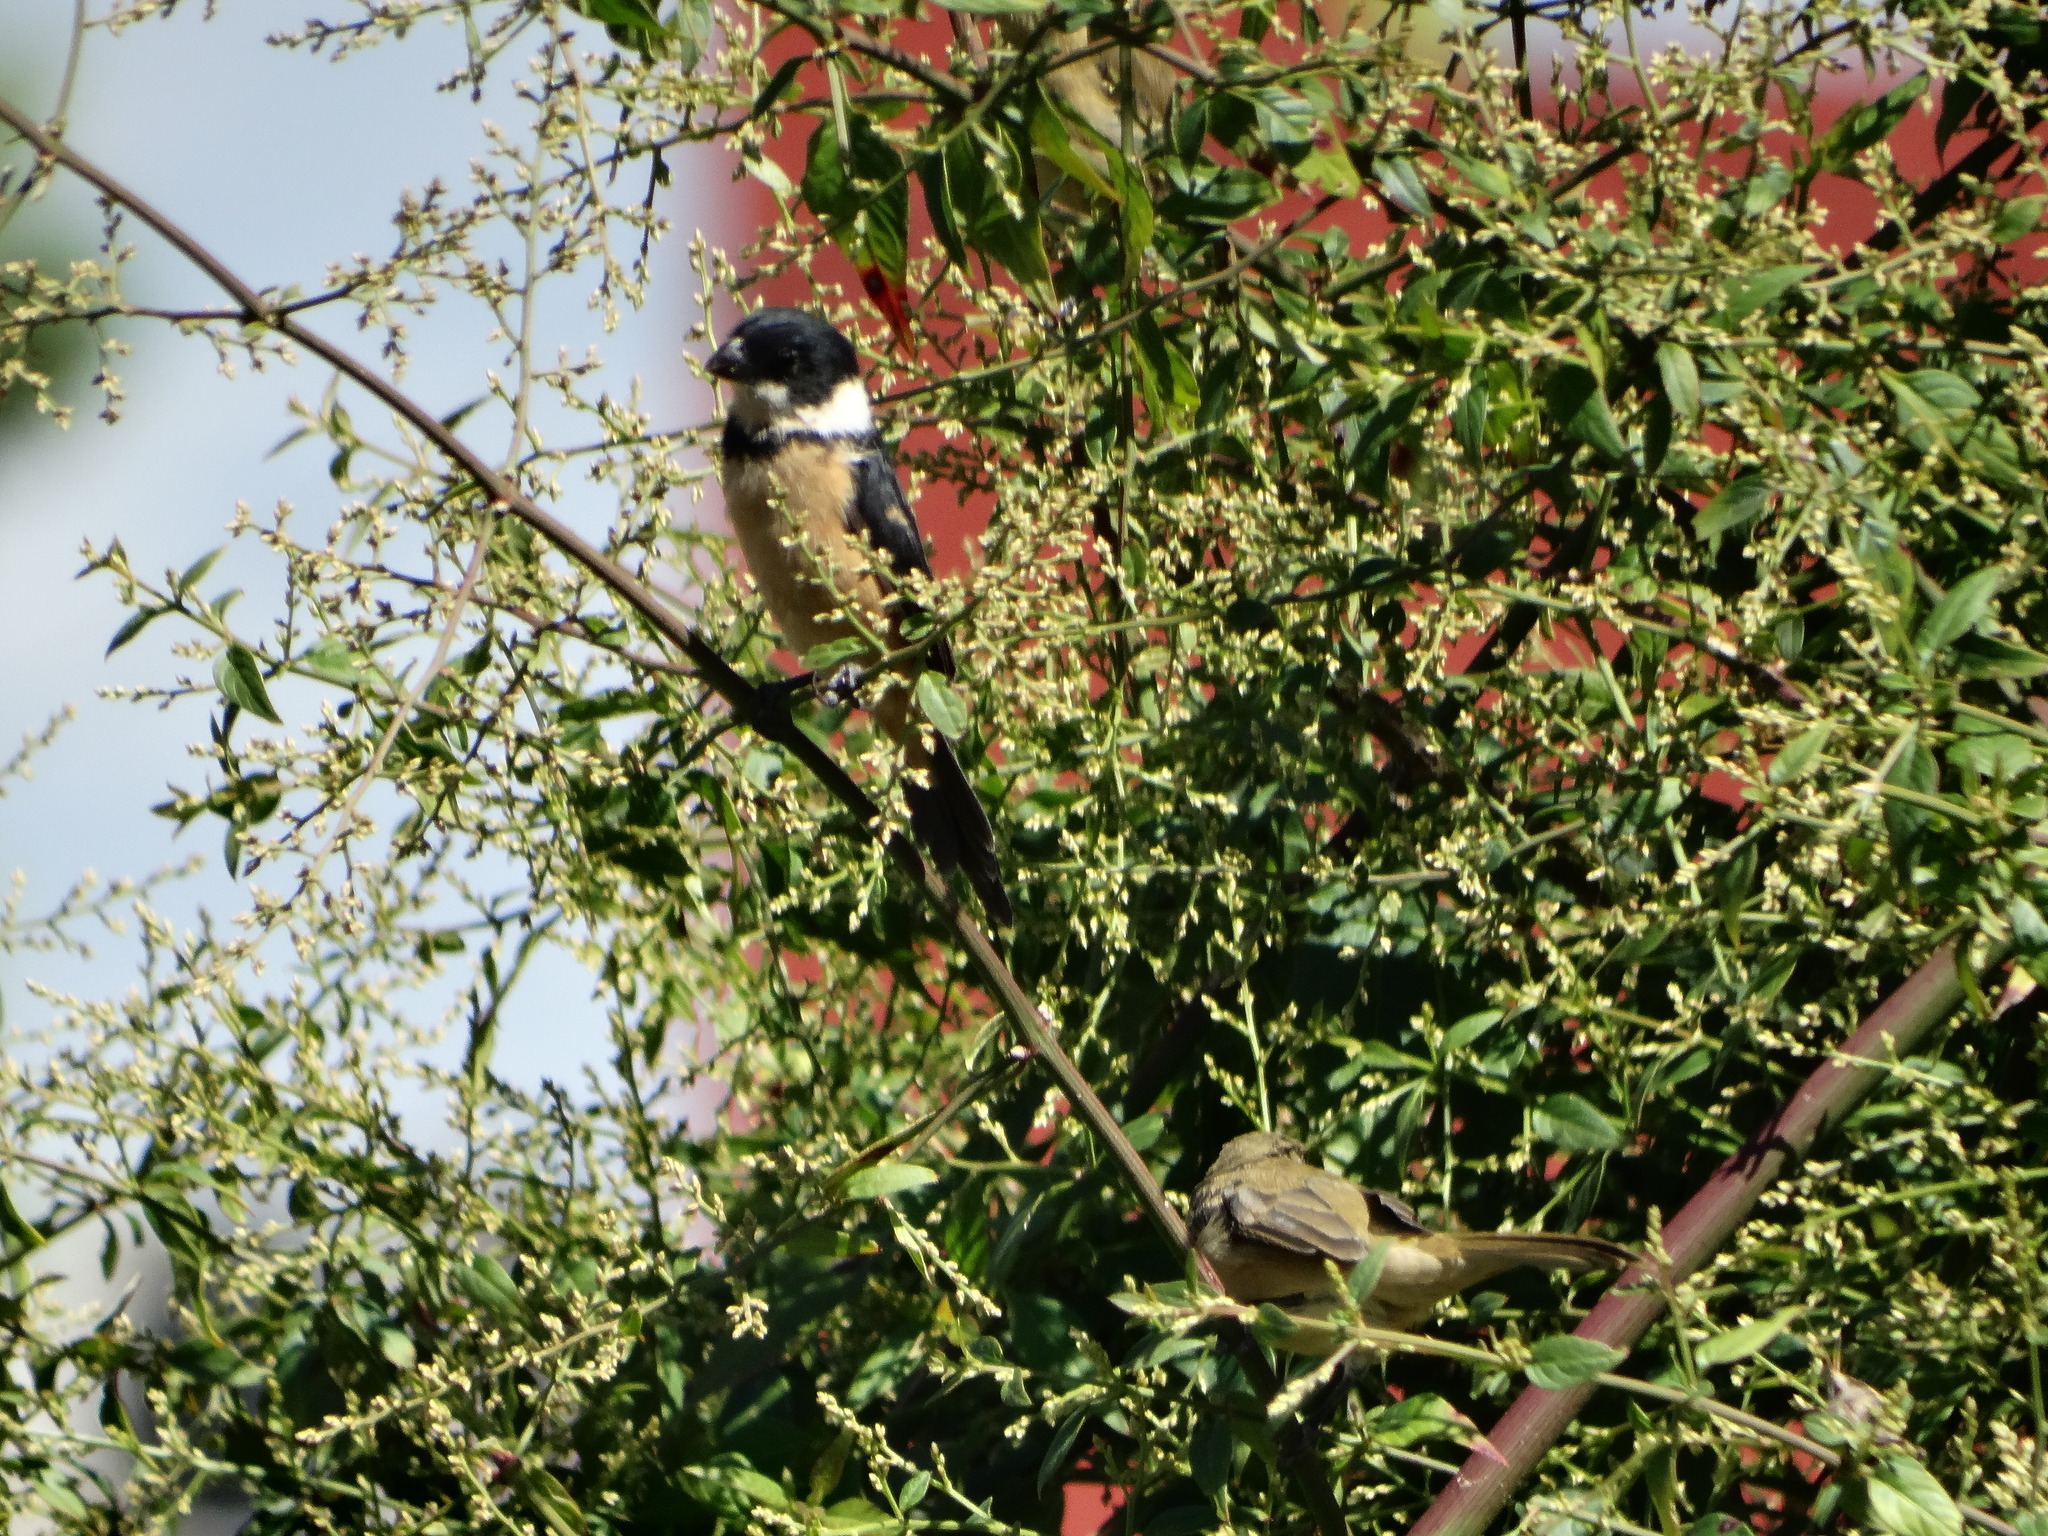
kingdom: Animalia
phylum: Chordata
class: Aves
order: Passeriformes
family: Thraupidae
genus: Sporophila
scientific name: Sporophila torqueola
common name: White-collared seedeater
